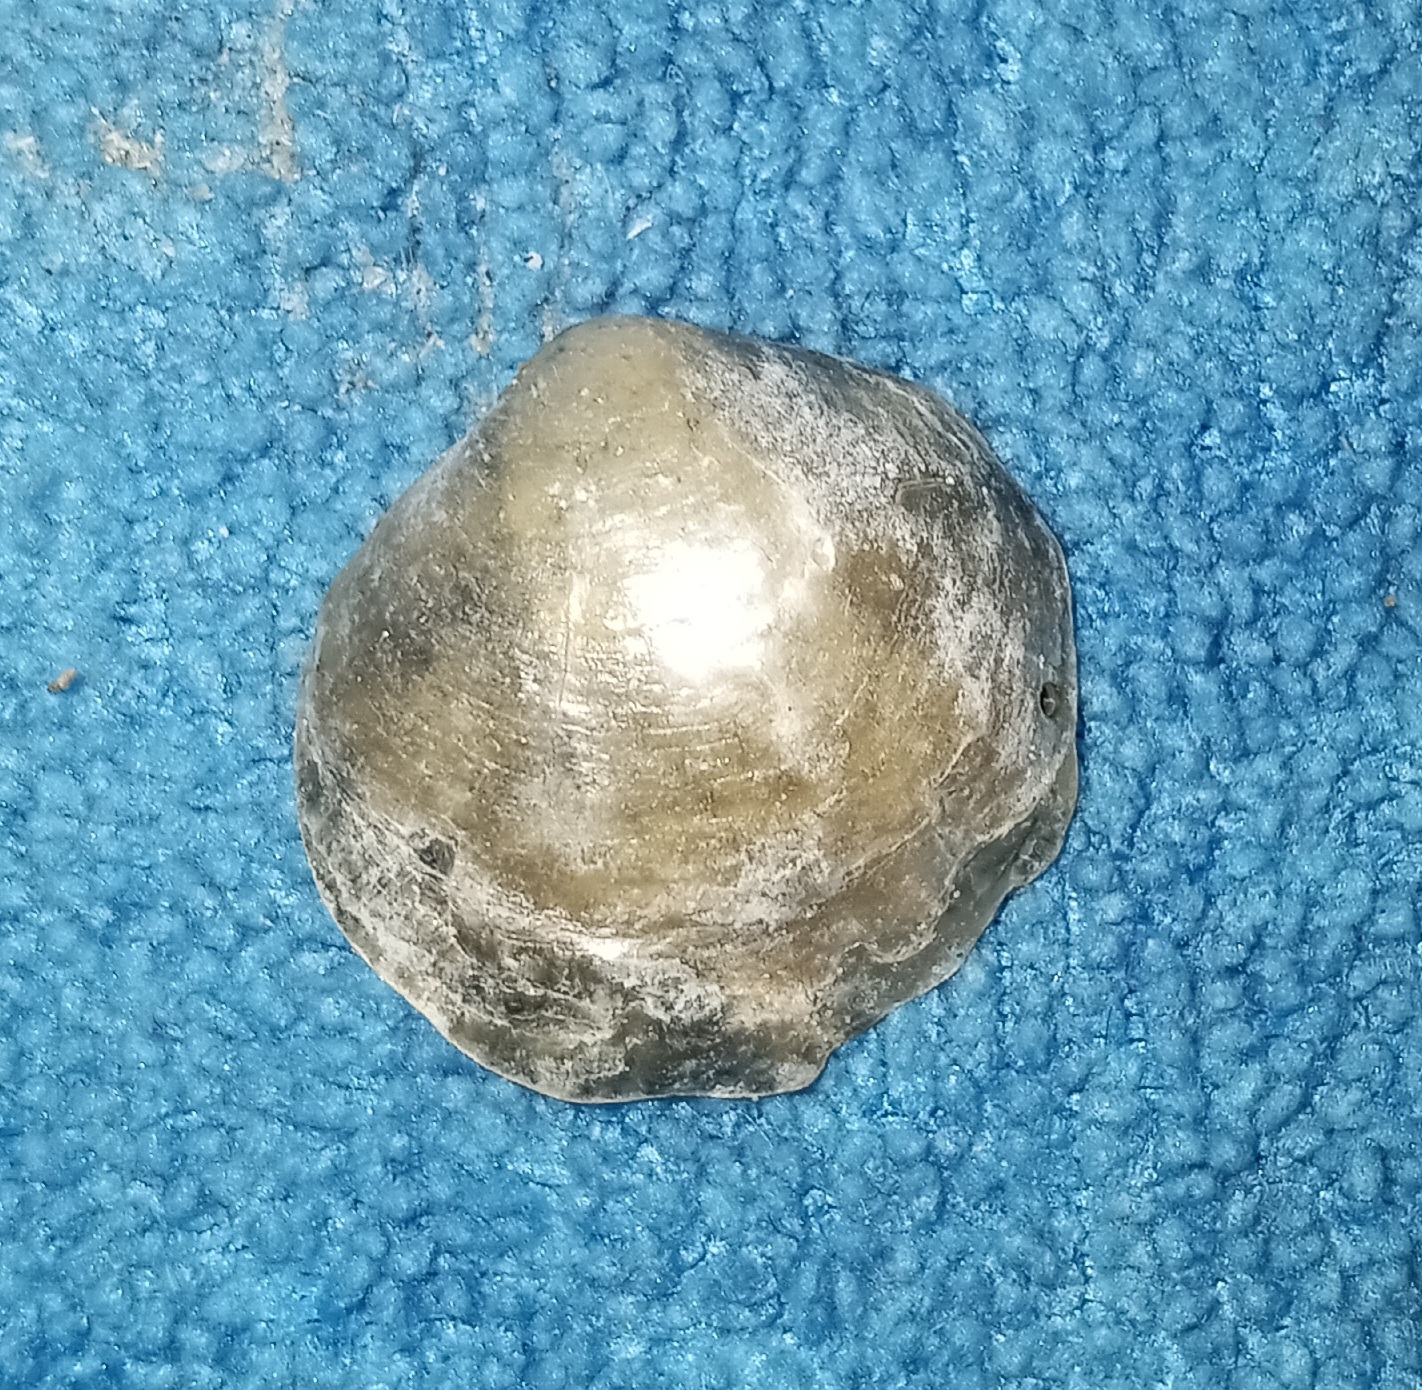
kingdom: Animalia
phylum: Mollusca
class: Bivalvia
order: Pectinida
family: Anomiidae
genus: Anomia
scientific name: Anomia simplex
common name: Common jingle shell
